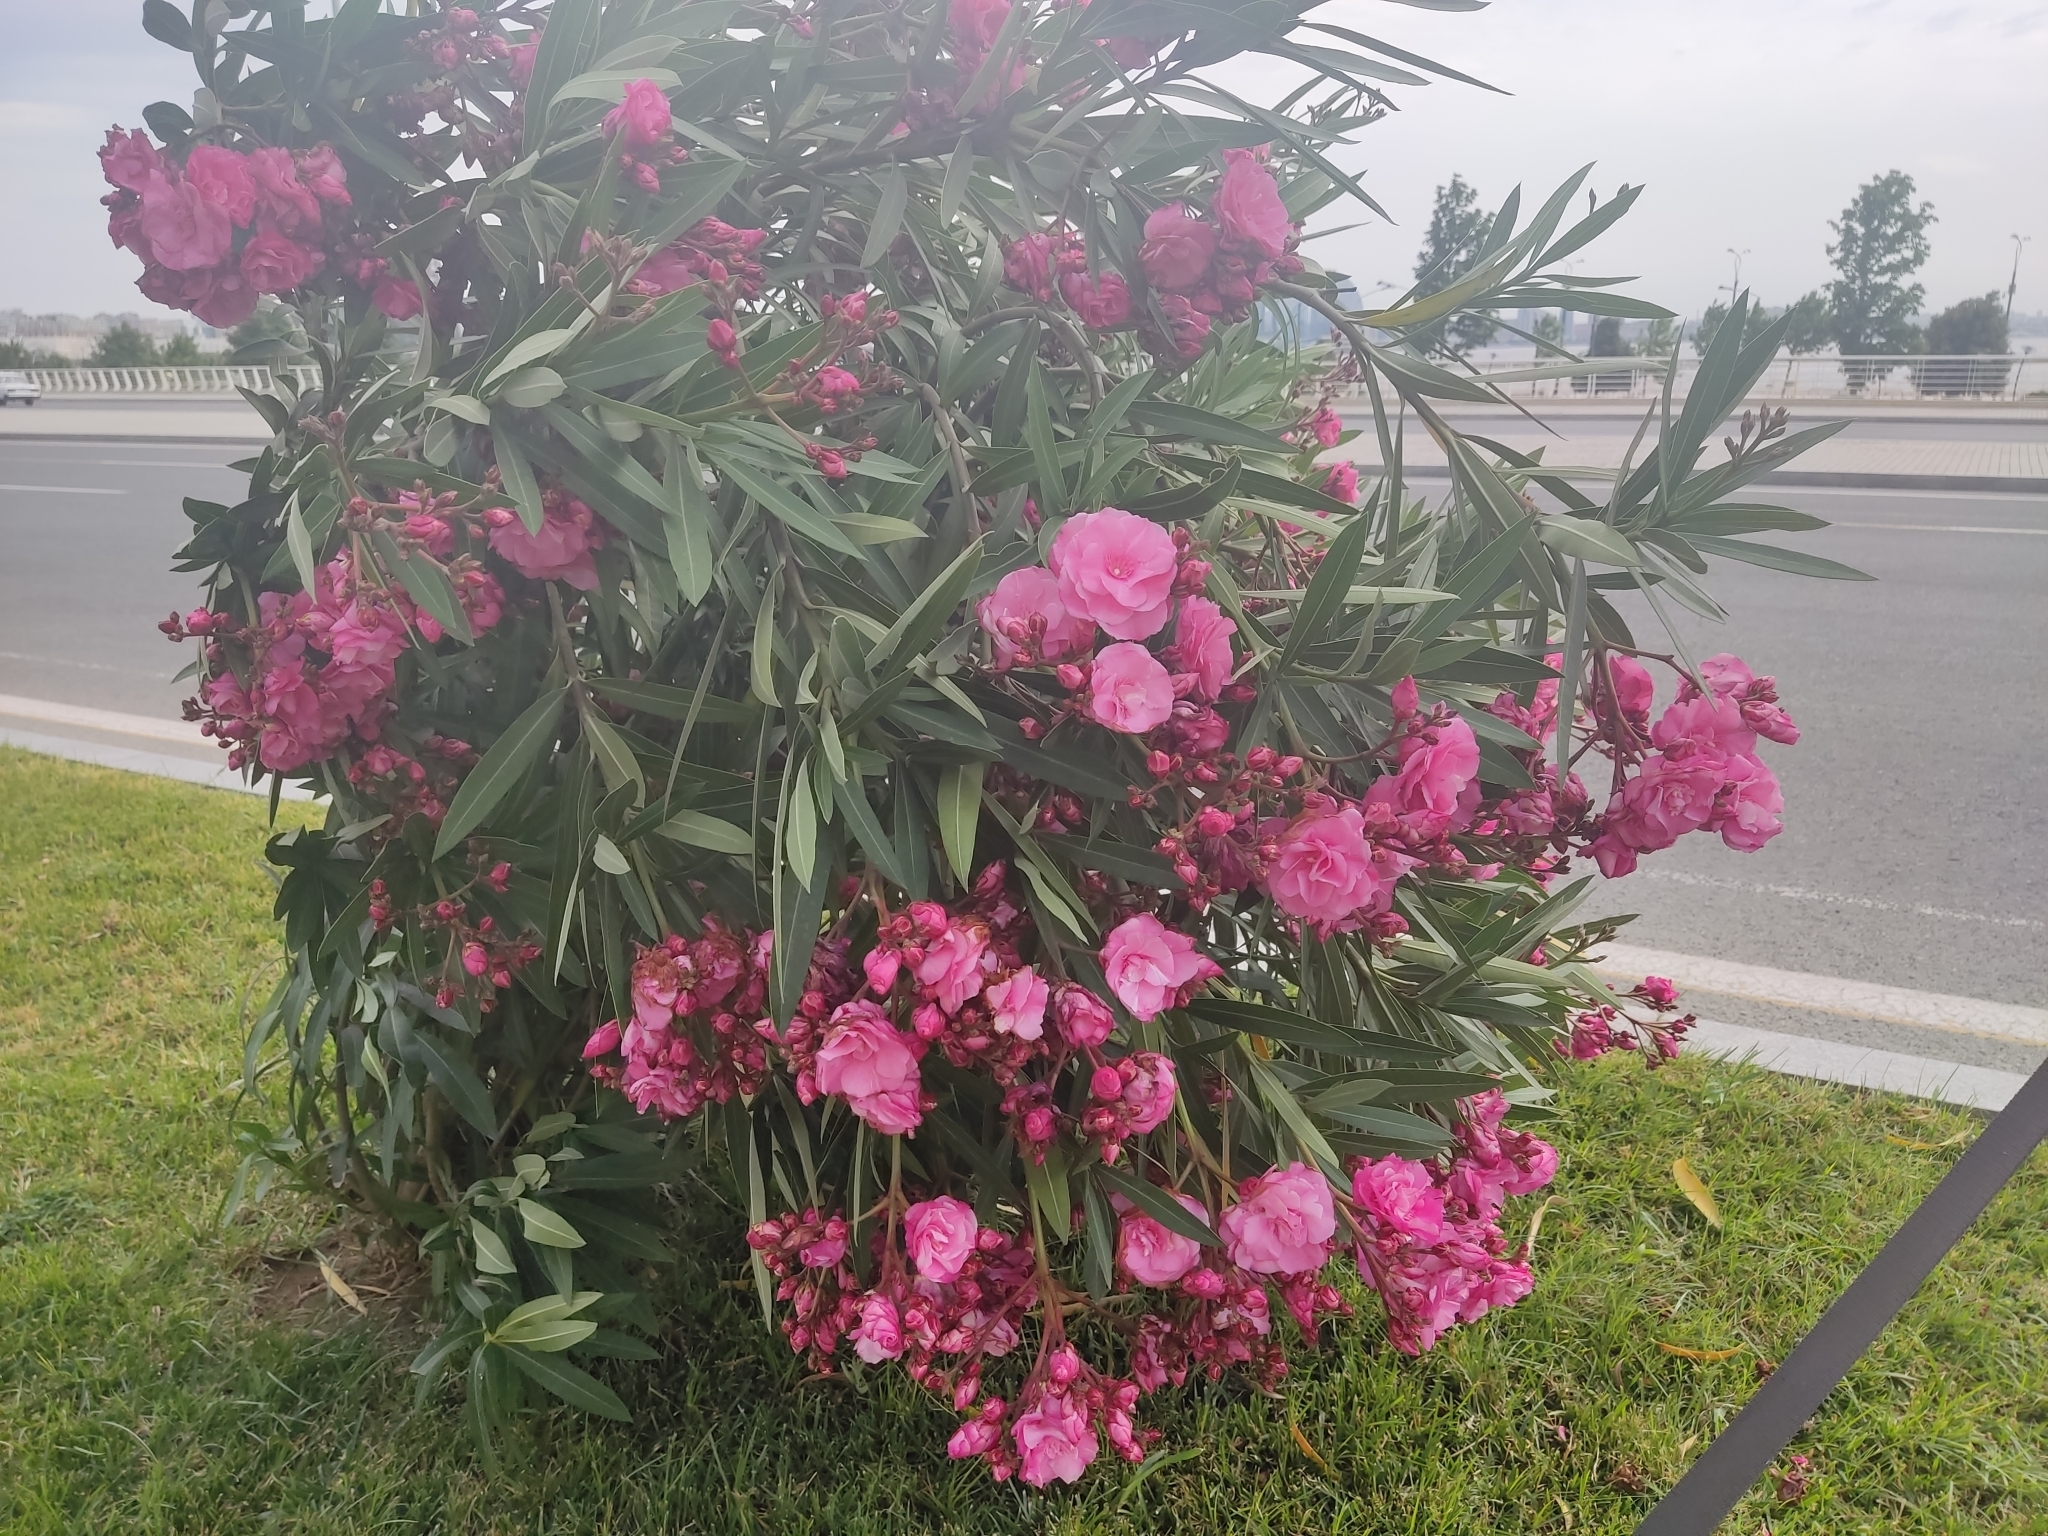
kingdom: Plantae
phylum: Tracheophyta
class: Magnoliopsida
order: Gentianales
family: Apocynaceae
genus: Nerium
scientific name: Nerium oleander
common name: Oleander
